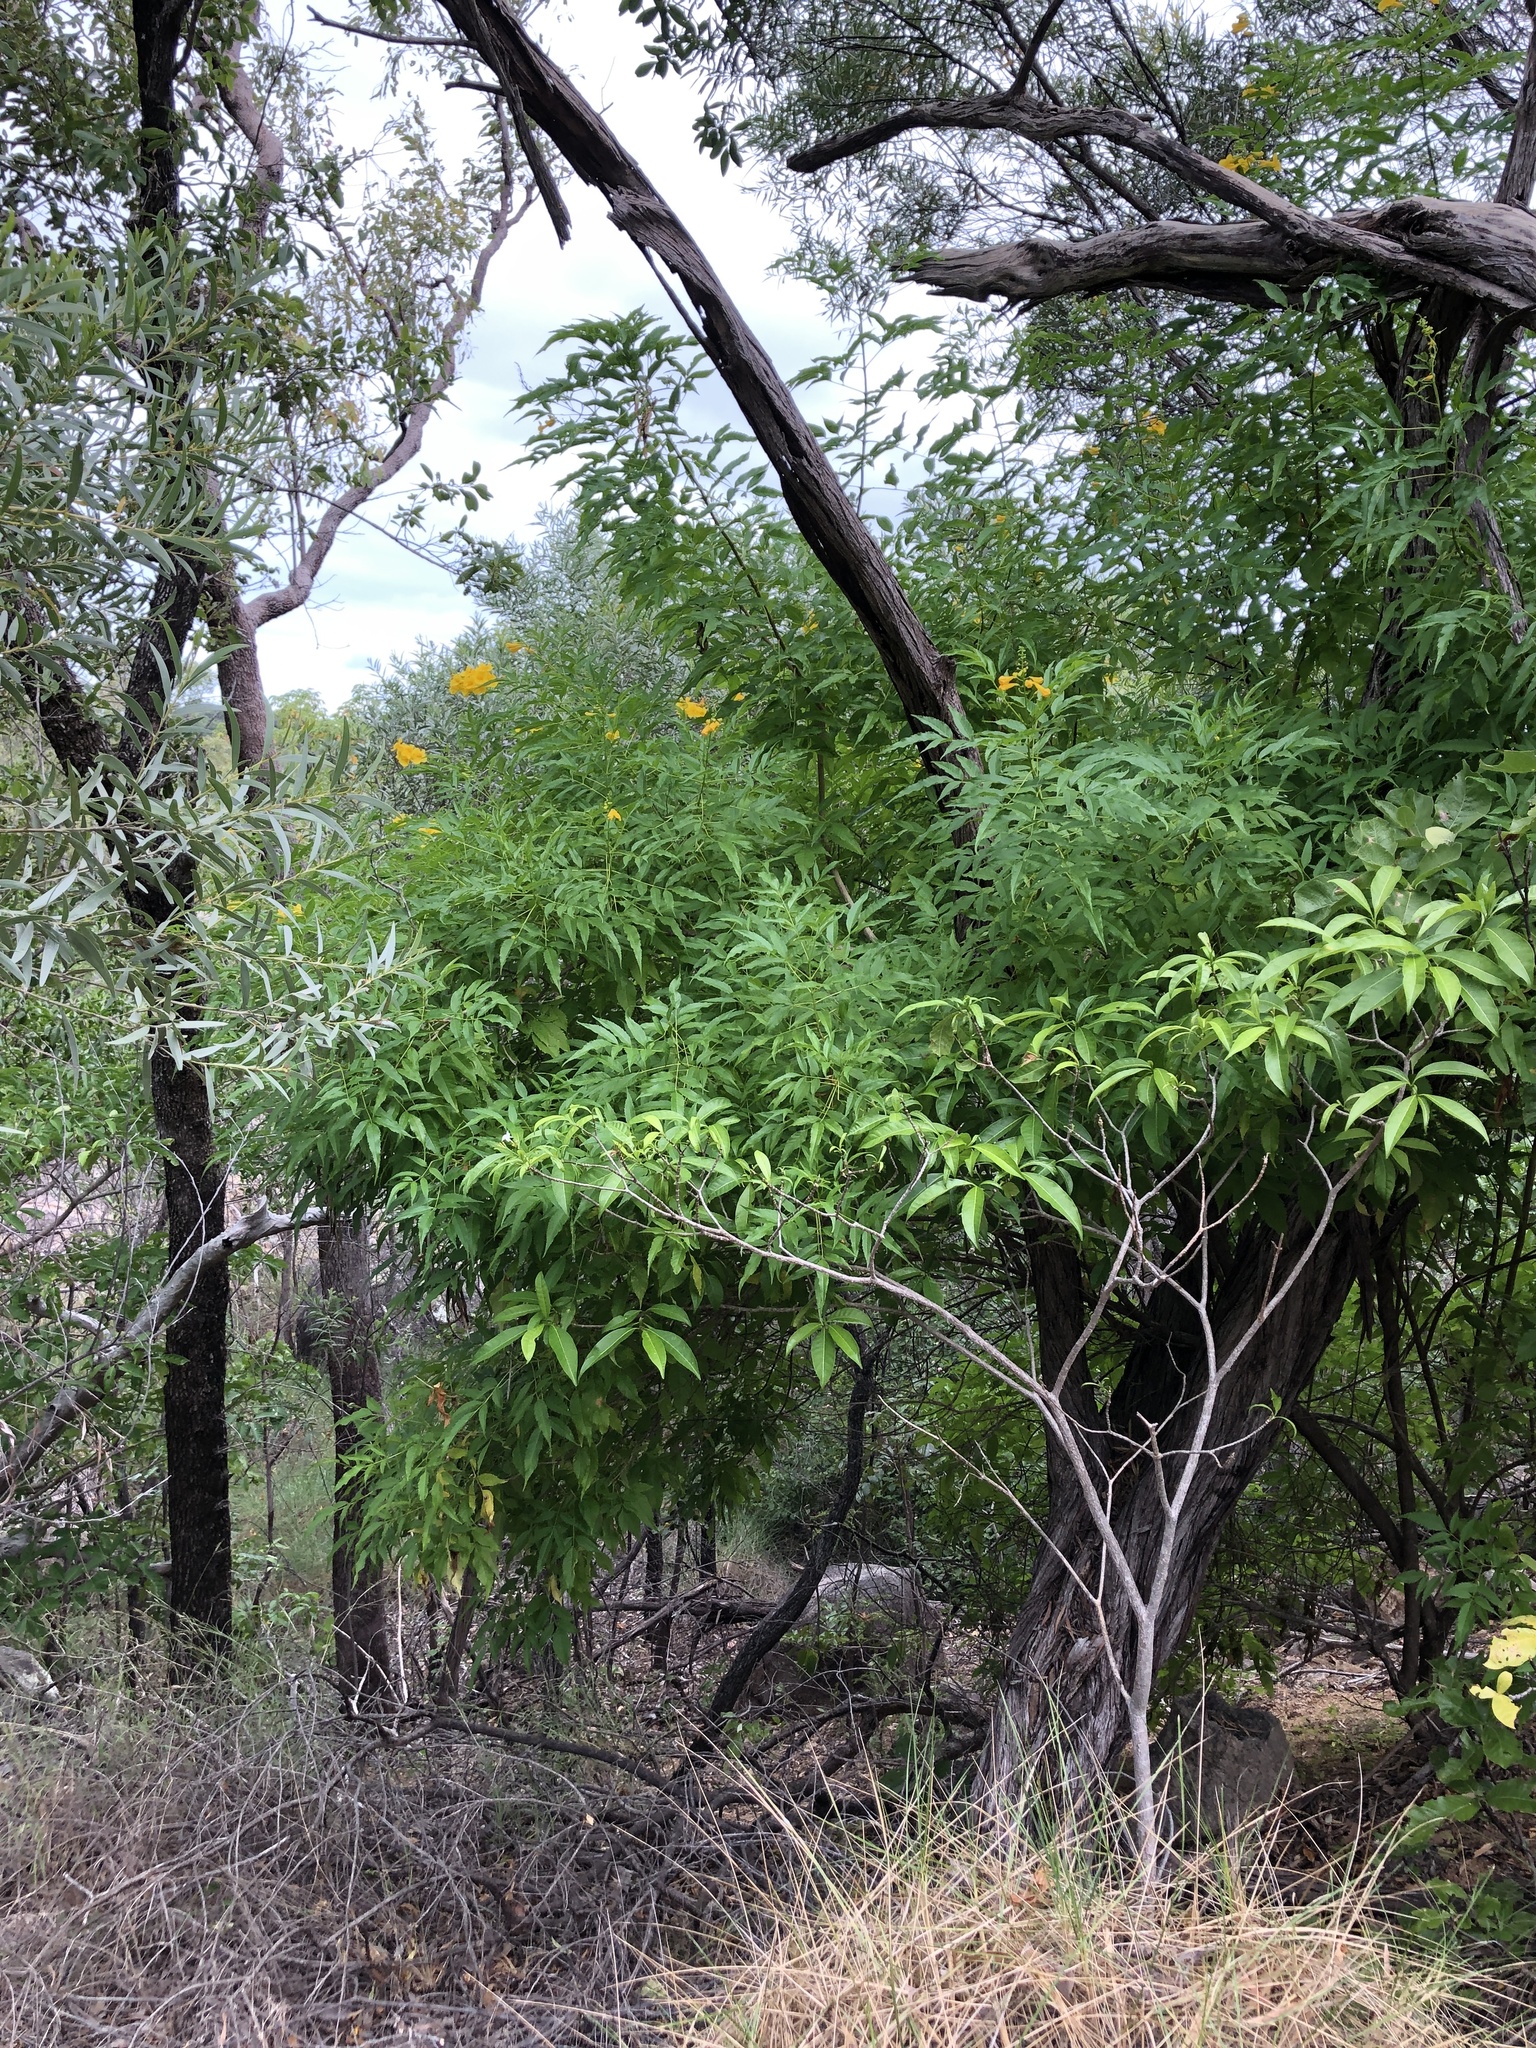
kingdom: Plantae
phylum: Tracheophyta
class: Magnoliopsida
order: Lamiales
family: Bignoniaceae
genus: Tecoma
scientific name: Tecoma stans
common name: Yellow trumpetbush
